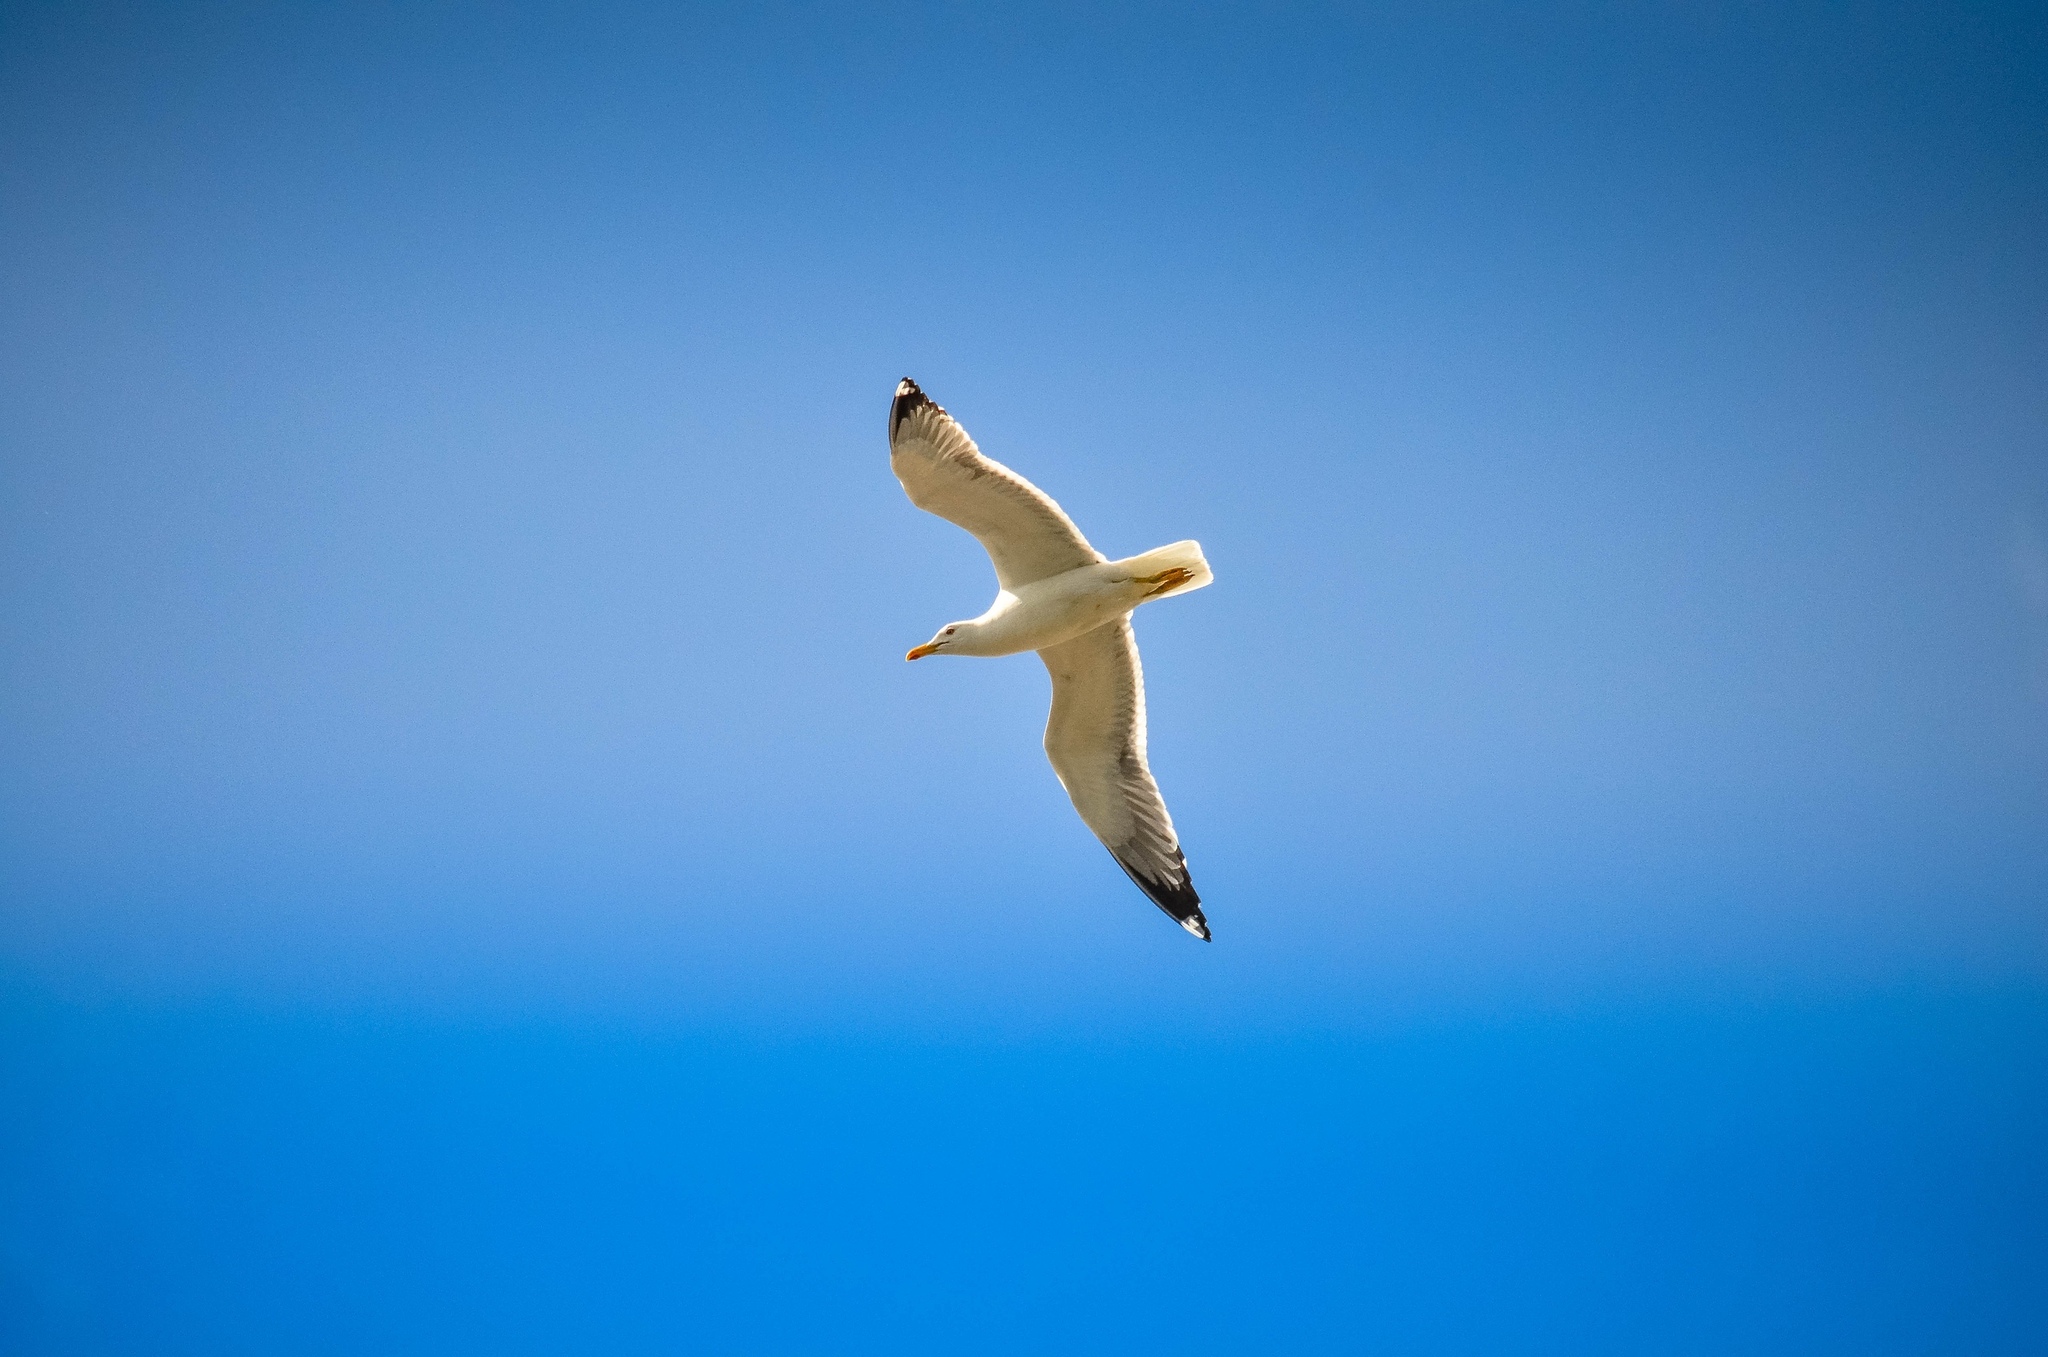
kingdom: Animalia
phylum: Chordata
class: Aves
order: Charadriiformes
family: Laridae
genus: Larus
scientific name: Larus fuscus
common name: Lesser black-backed gull
